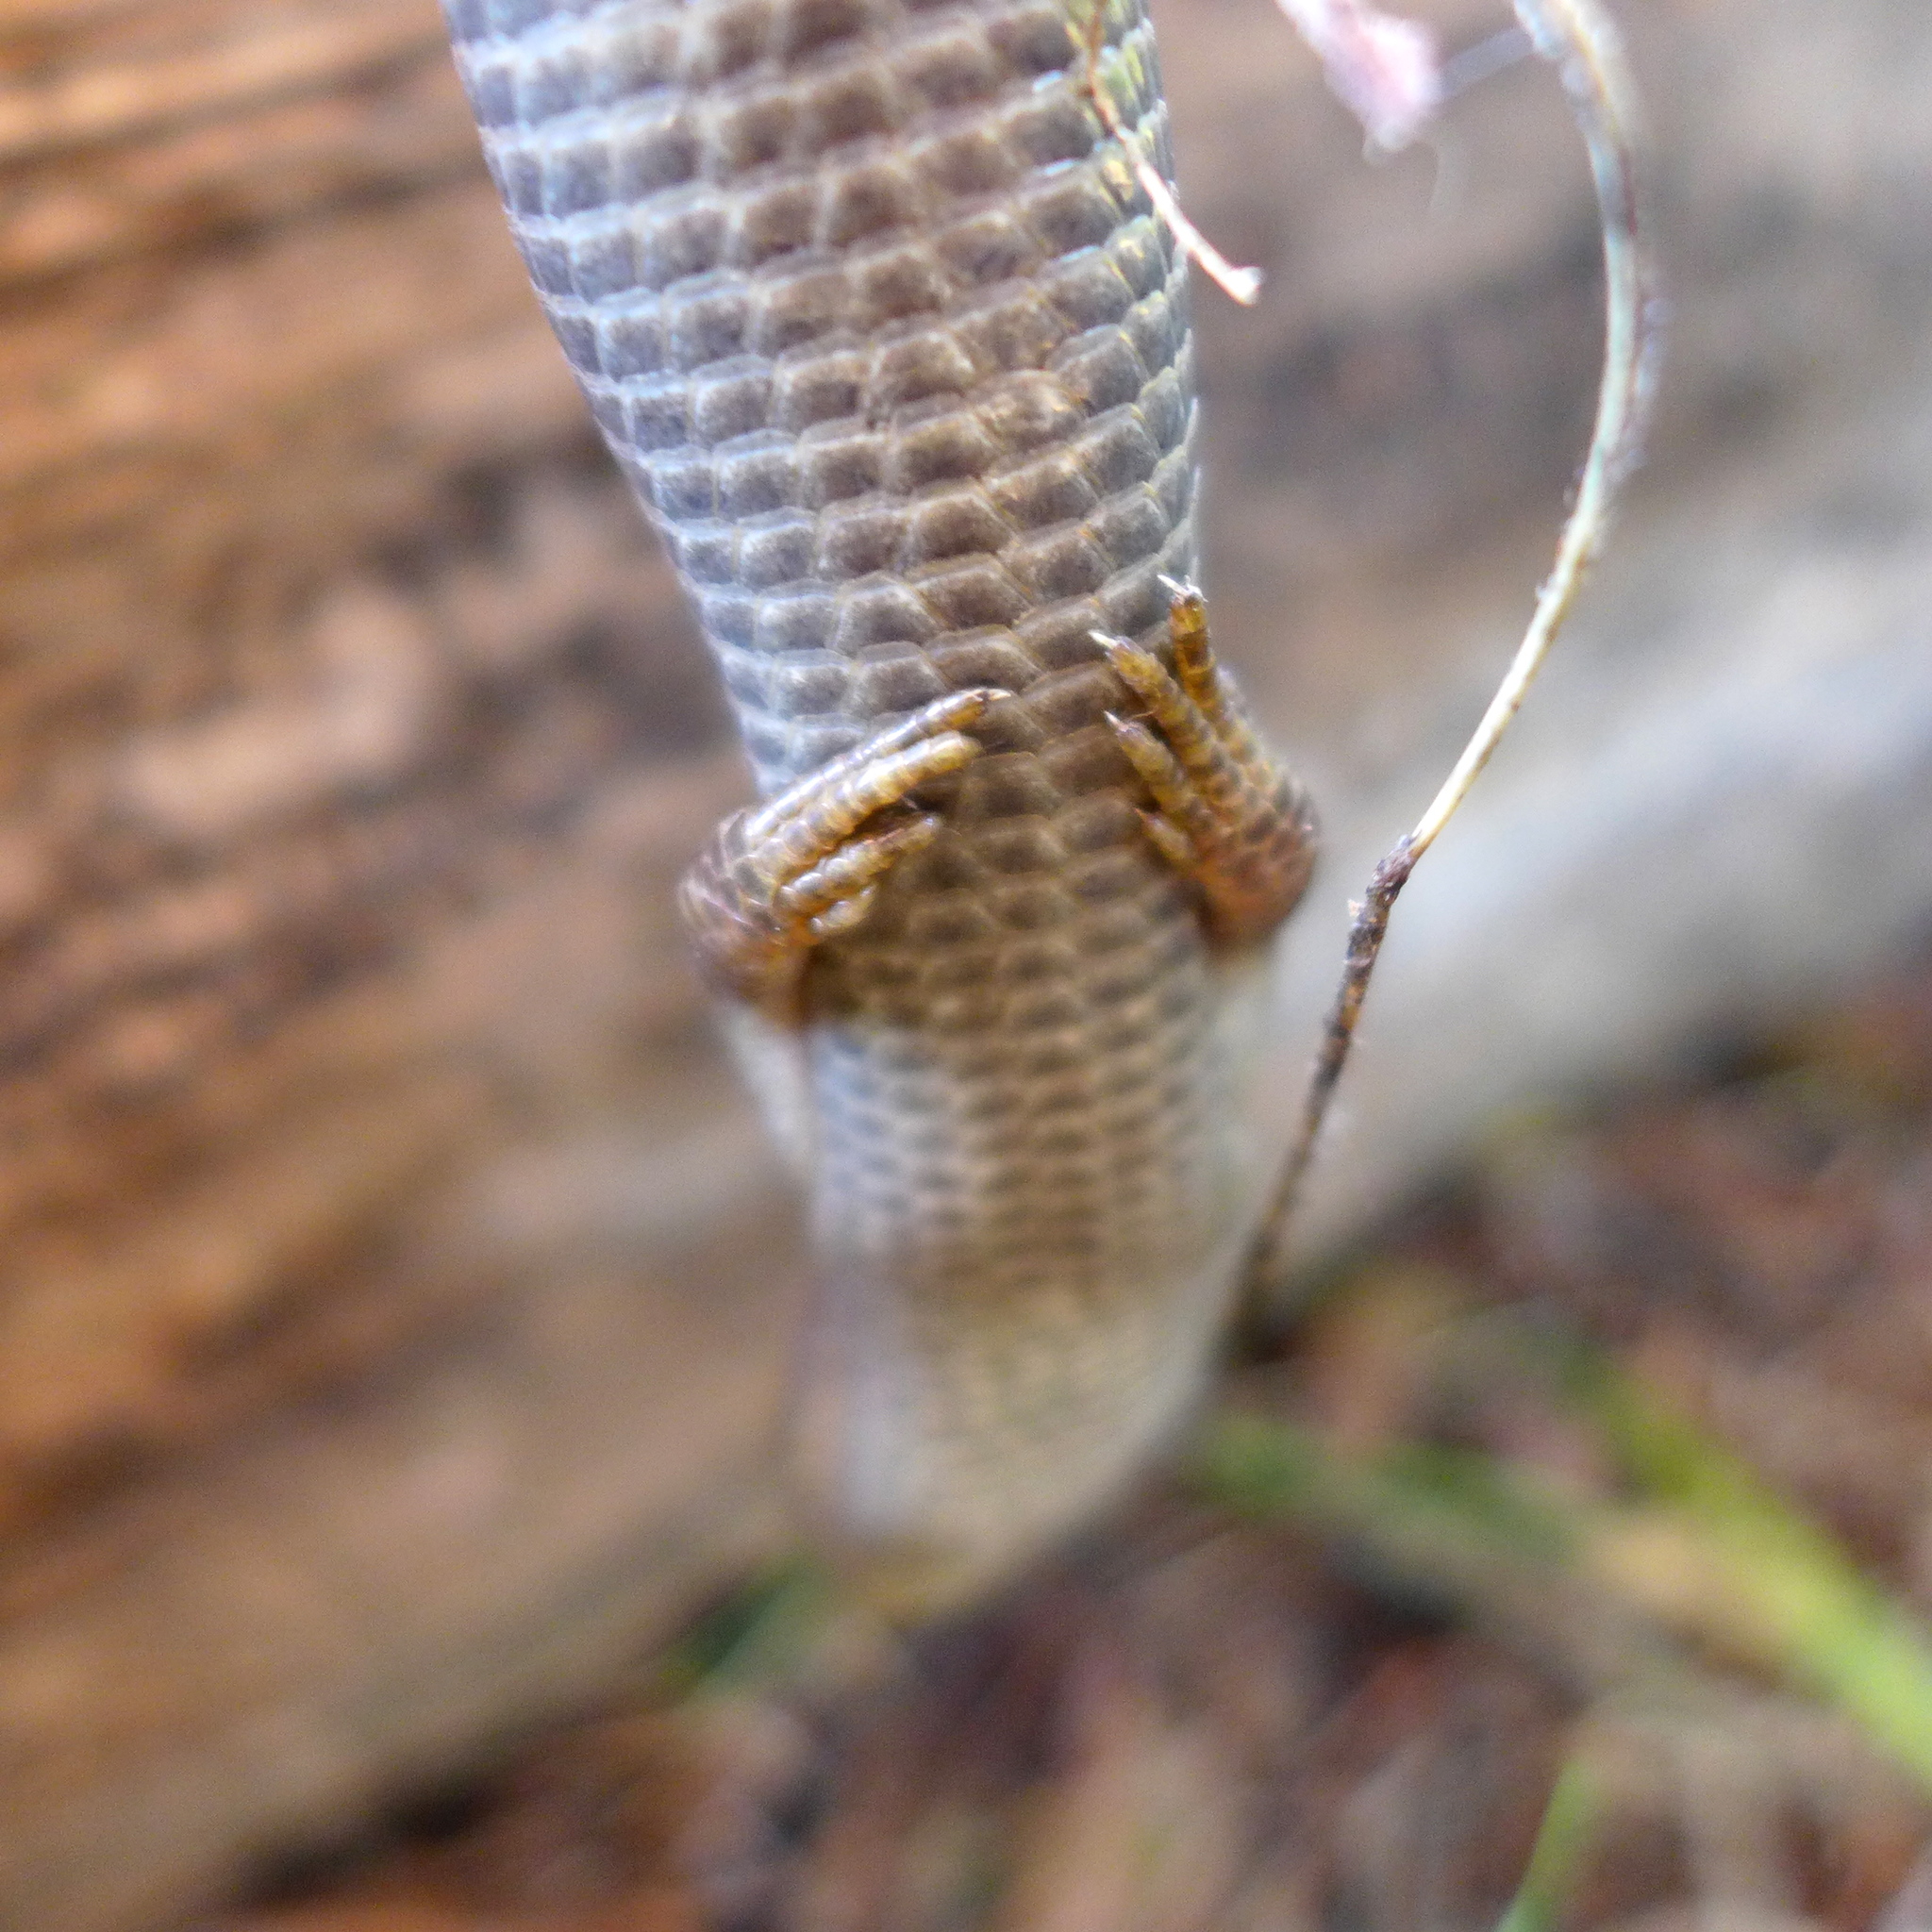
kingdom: Animalia
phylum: Chordata
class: Squamata
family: Anguidae
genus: Elgaria
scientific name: Elgaria multicarinata
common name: Southern alligator lizard
